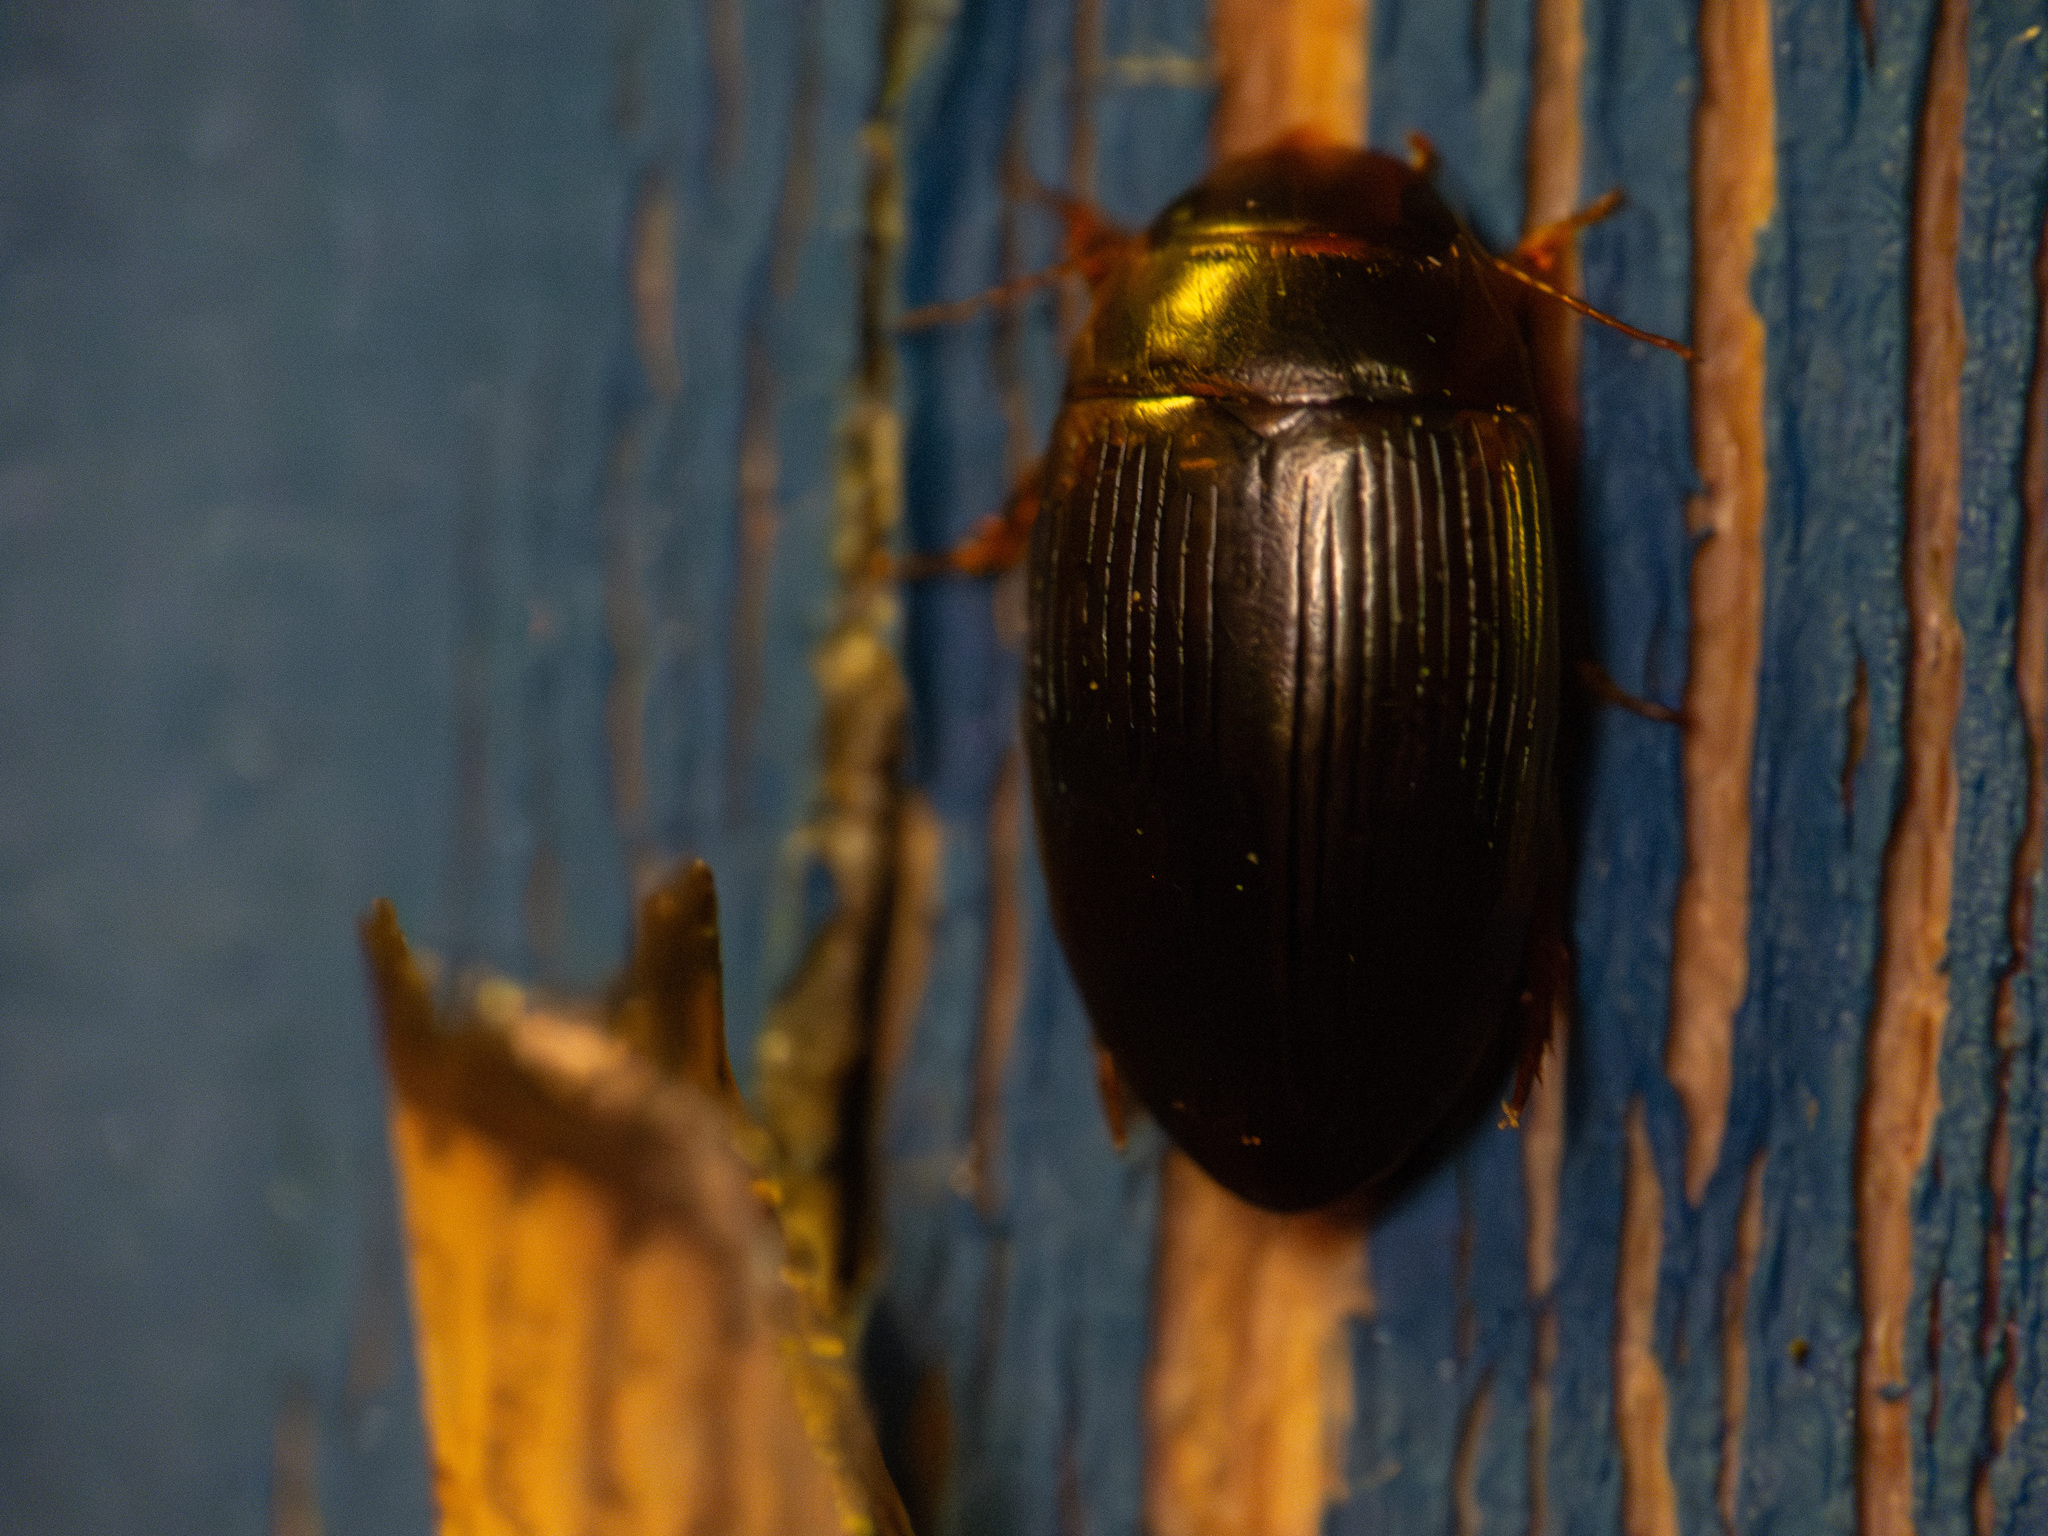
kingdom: Animalia
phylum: Arthropoda
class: Insecta
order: Coleoptera
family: Dytiscidae
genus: Copelatus
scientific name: Copelatus glyphicus
